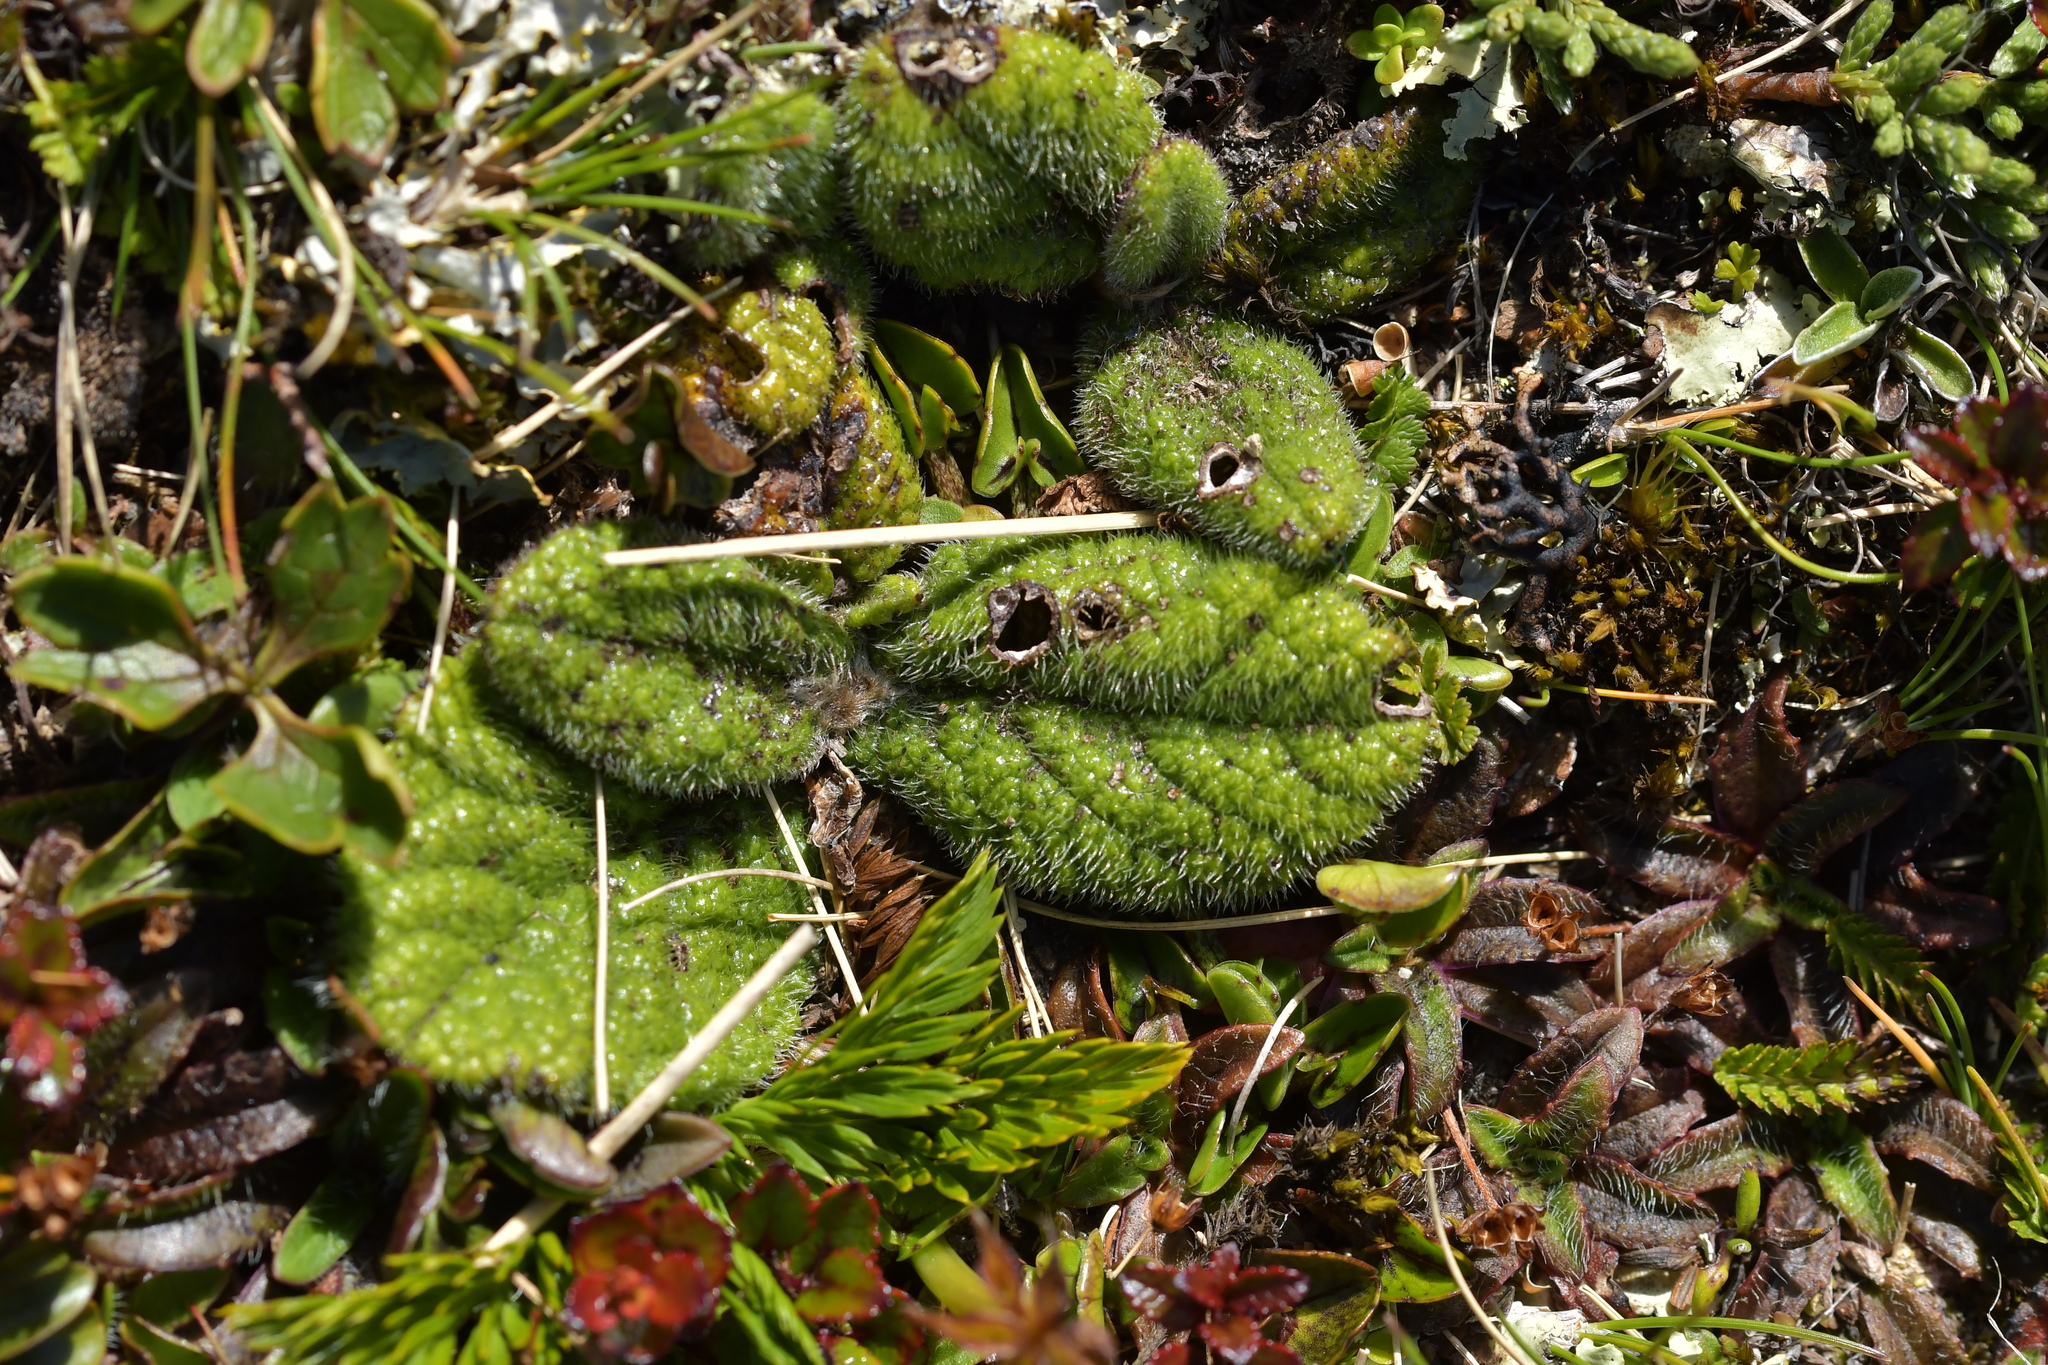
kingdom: Plantae
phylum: Tracheophyta
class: Magnoliopsida
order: Asterales
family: Asteraceae
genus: Brachyglottis
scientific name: Brachyglottis lagopus
